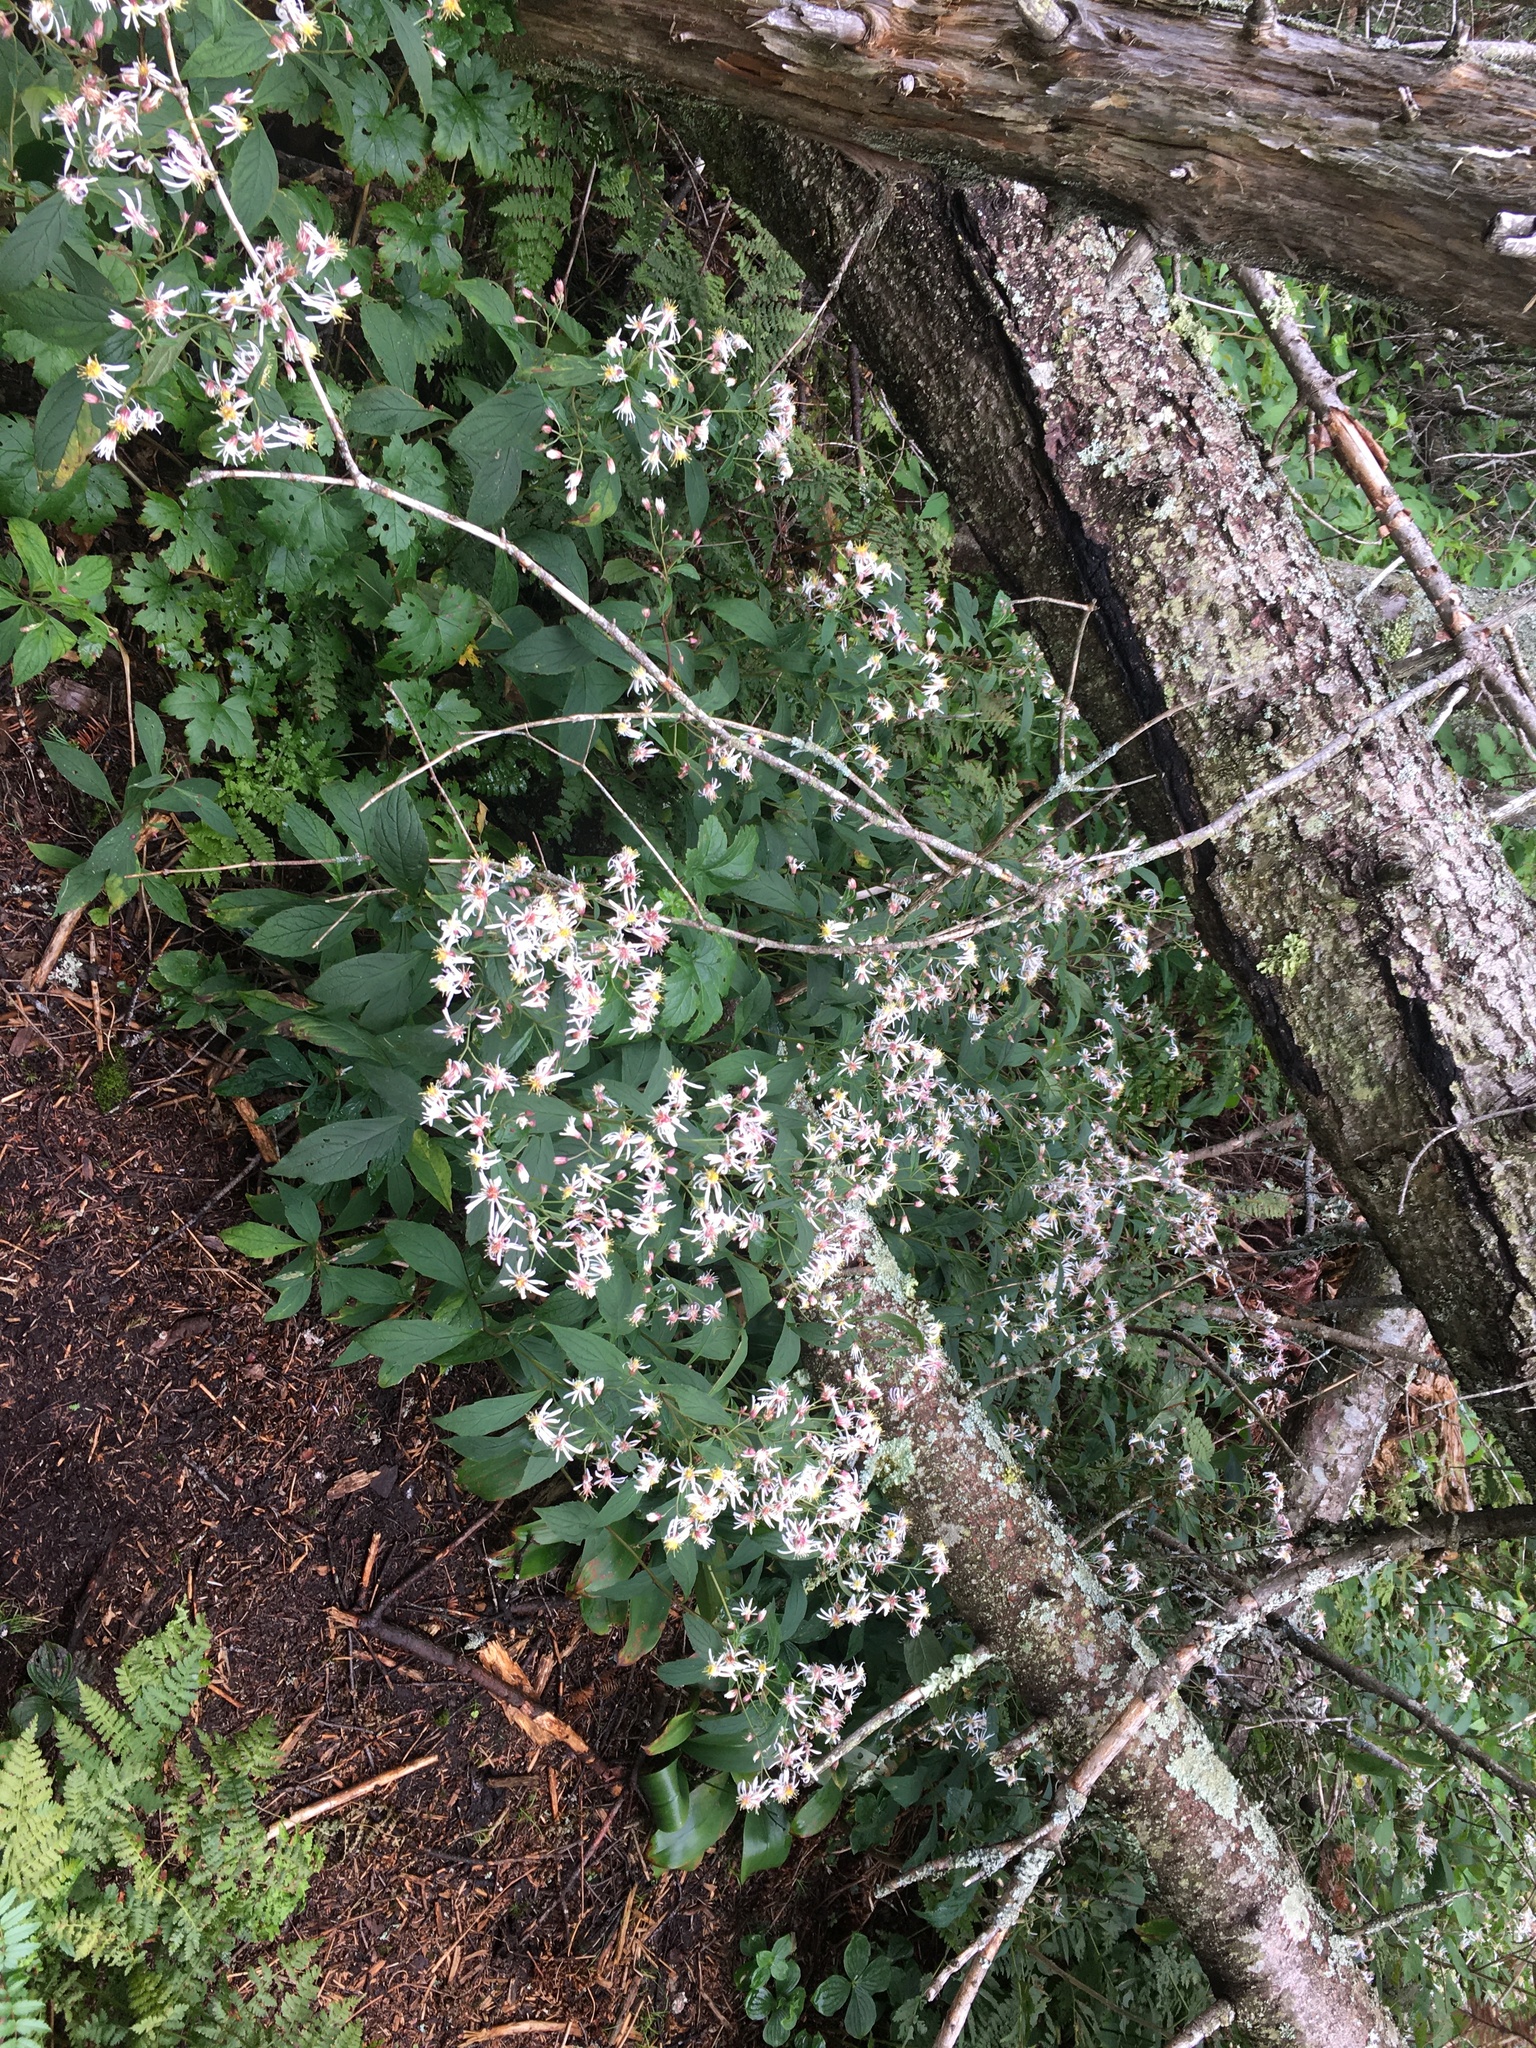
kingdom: Plantae
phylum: Tracheophyta
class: Magnoliopsida
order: Asterales
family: Asteraceae
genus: Oclemena
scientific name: Oclemena acuminata
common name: Mountain aster
